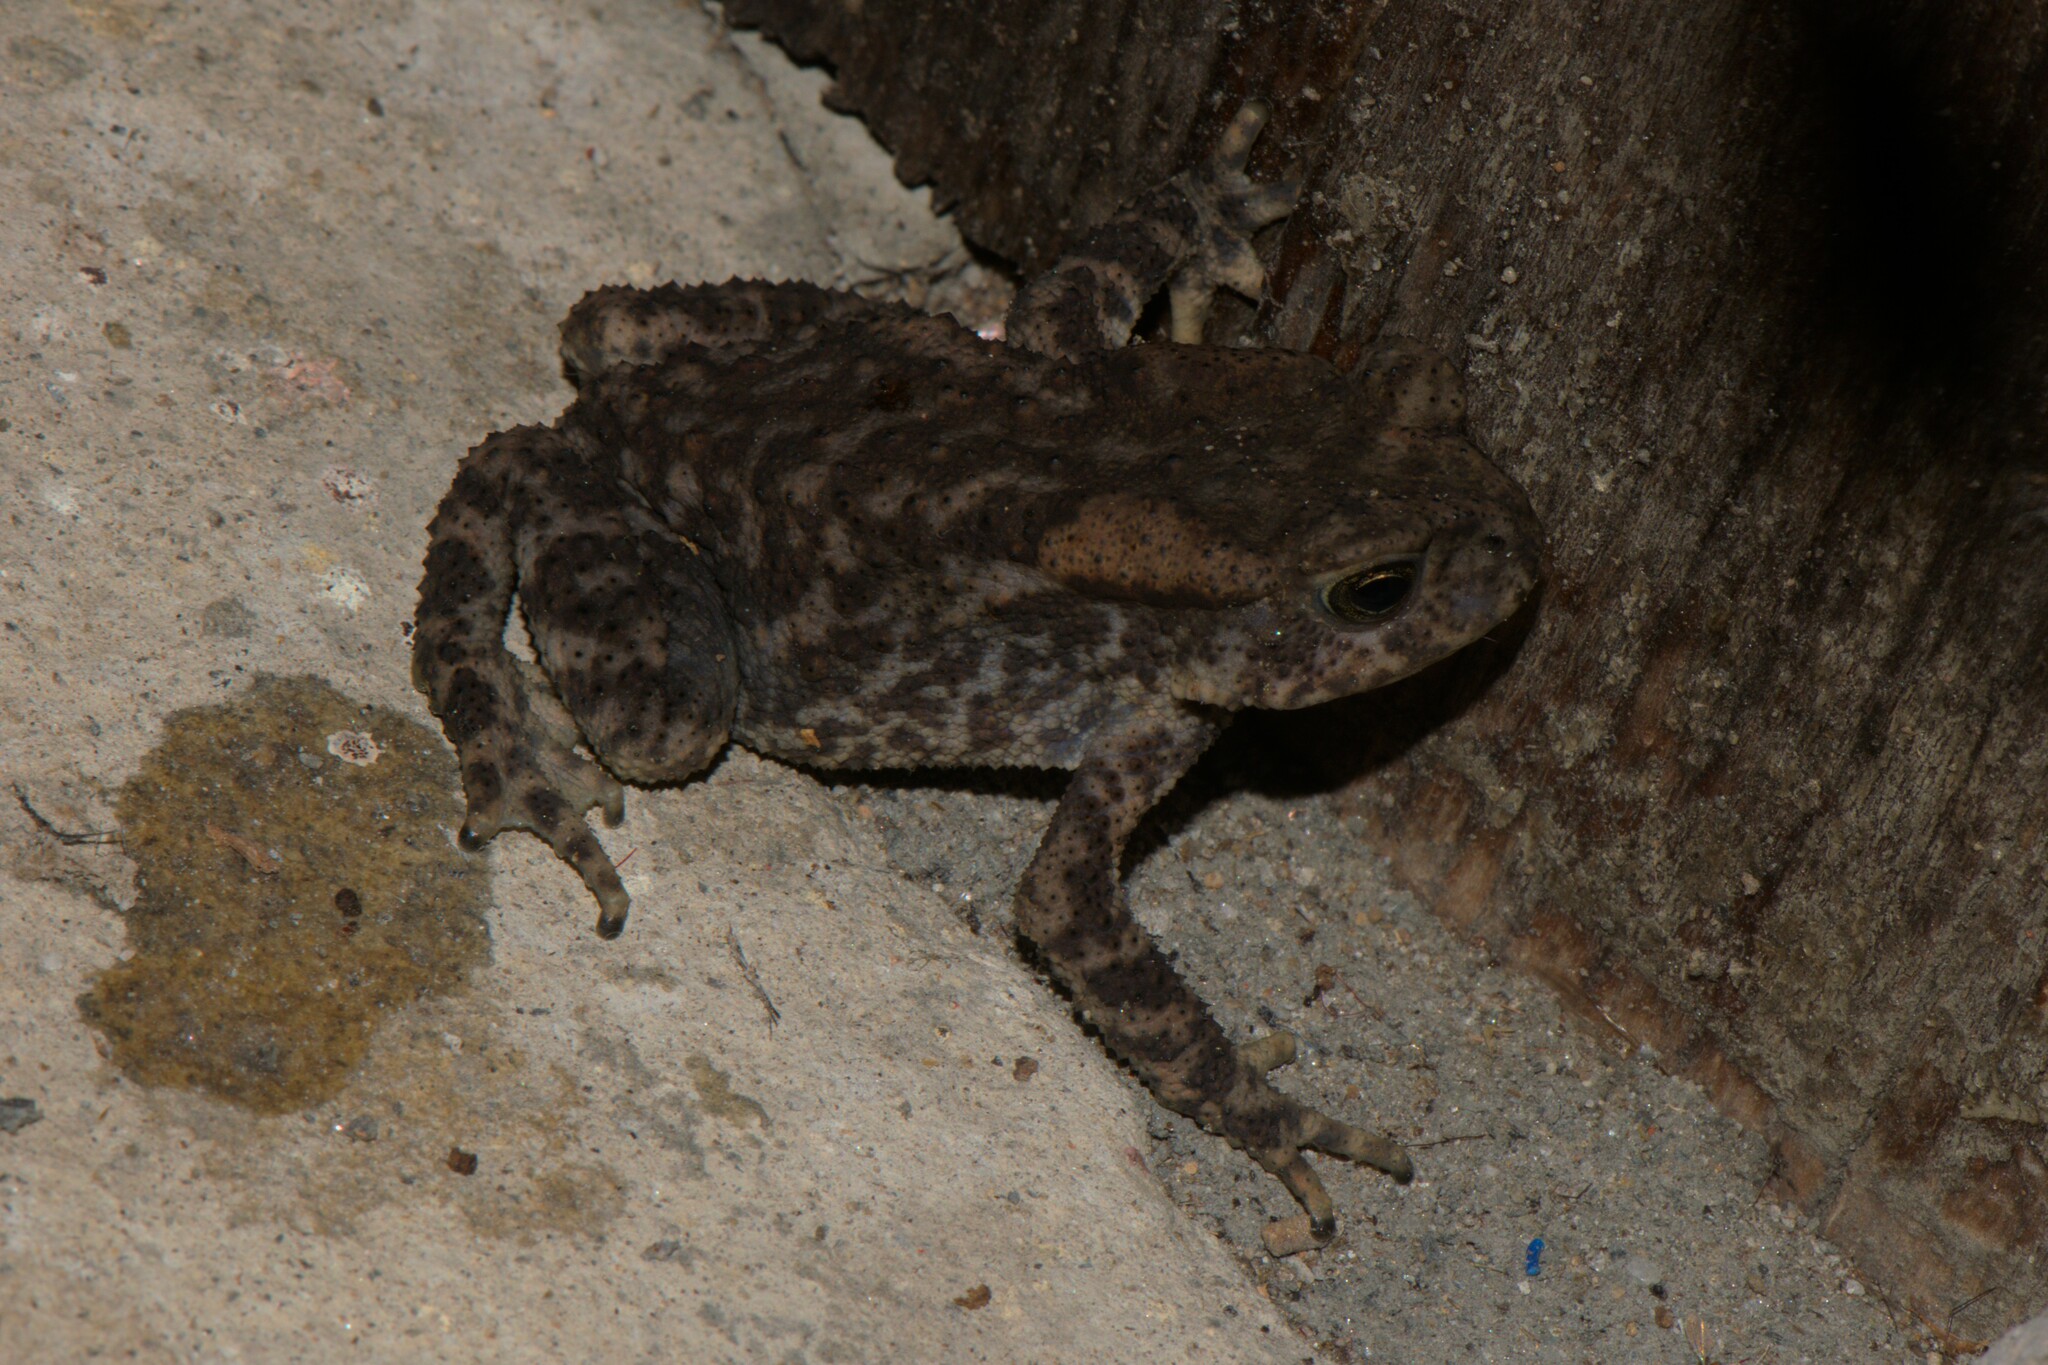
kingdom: Animalia
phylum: Chordata
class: Amphibia
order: Anura
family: Bufonidae
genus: Duttaphrynus
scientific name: Duttaphrynus himalayanus
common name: Günther's high altitude toad
